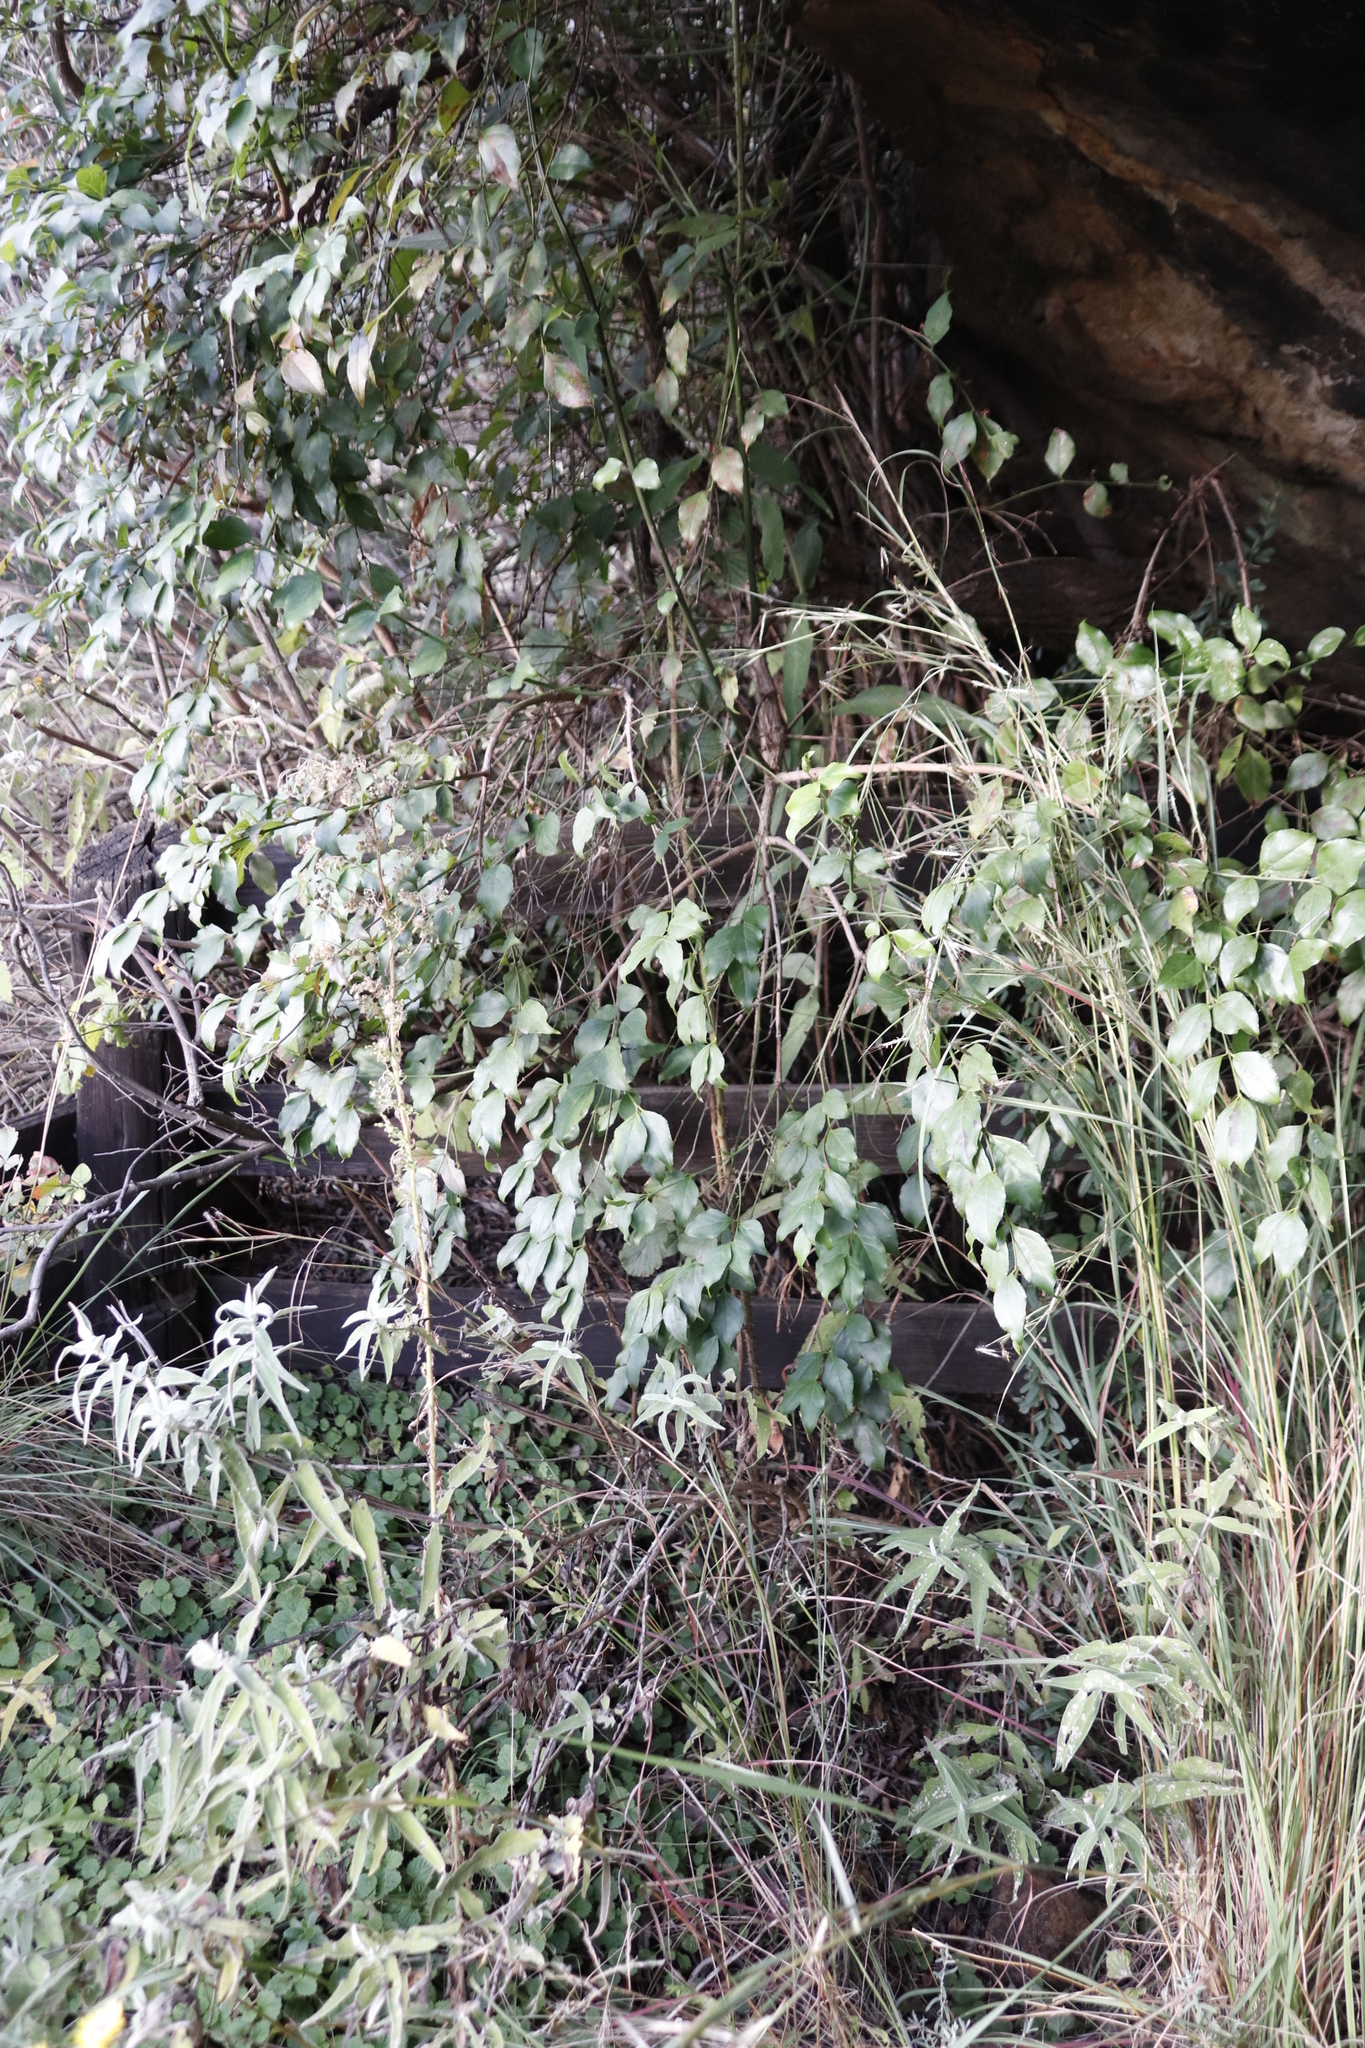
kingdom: Plantae
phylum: Tracheophyta
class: Magnoliopsida
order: Lamiales
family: Stilbaceae
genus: Halleria
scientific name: Halleria lucida
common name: Tree fuschia
